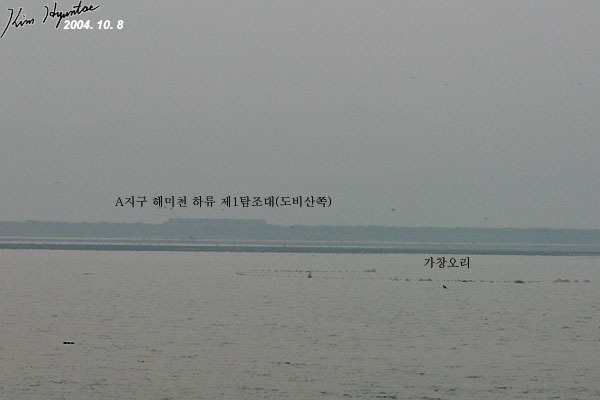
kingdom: Animalia
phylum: Chordata
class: Aves
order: Anseriformes
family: Anatidae
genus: Sibirionetta
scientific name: Sibirionetta formosa
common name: Baikal teal
